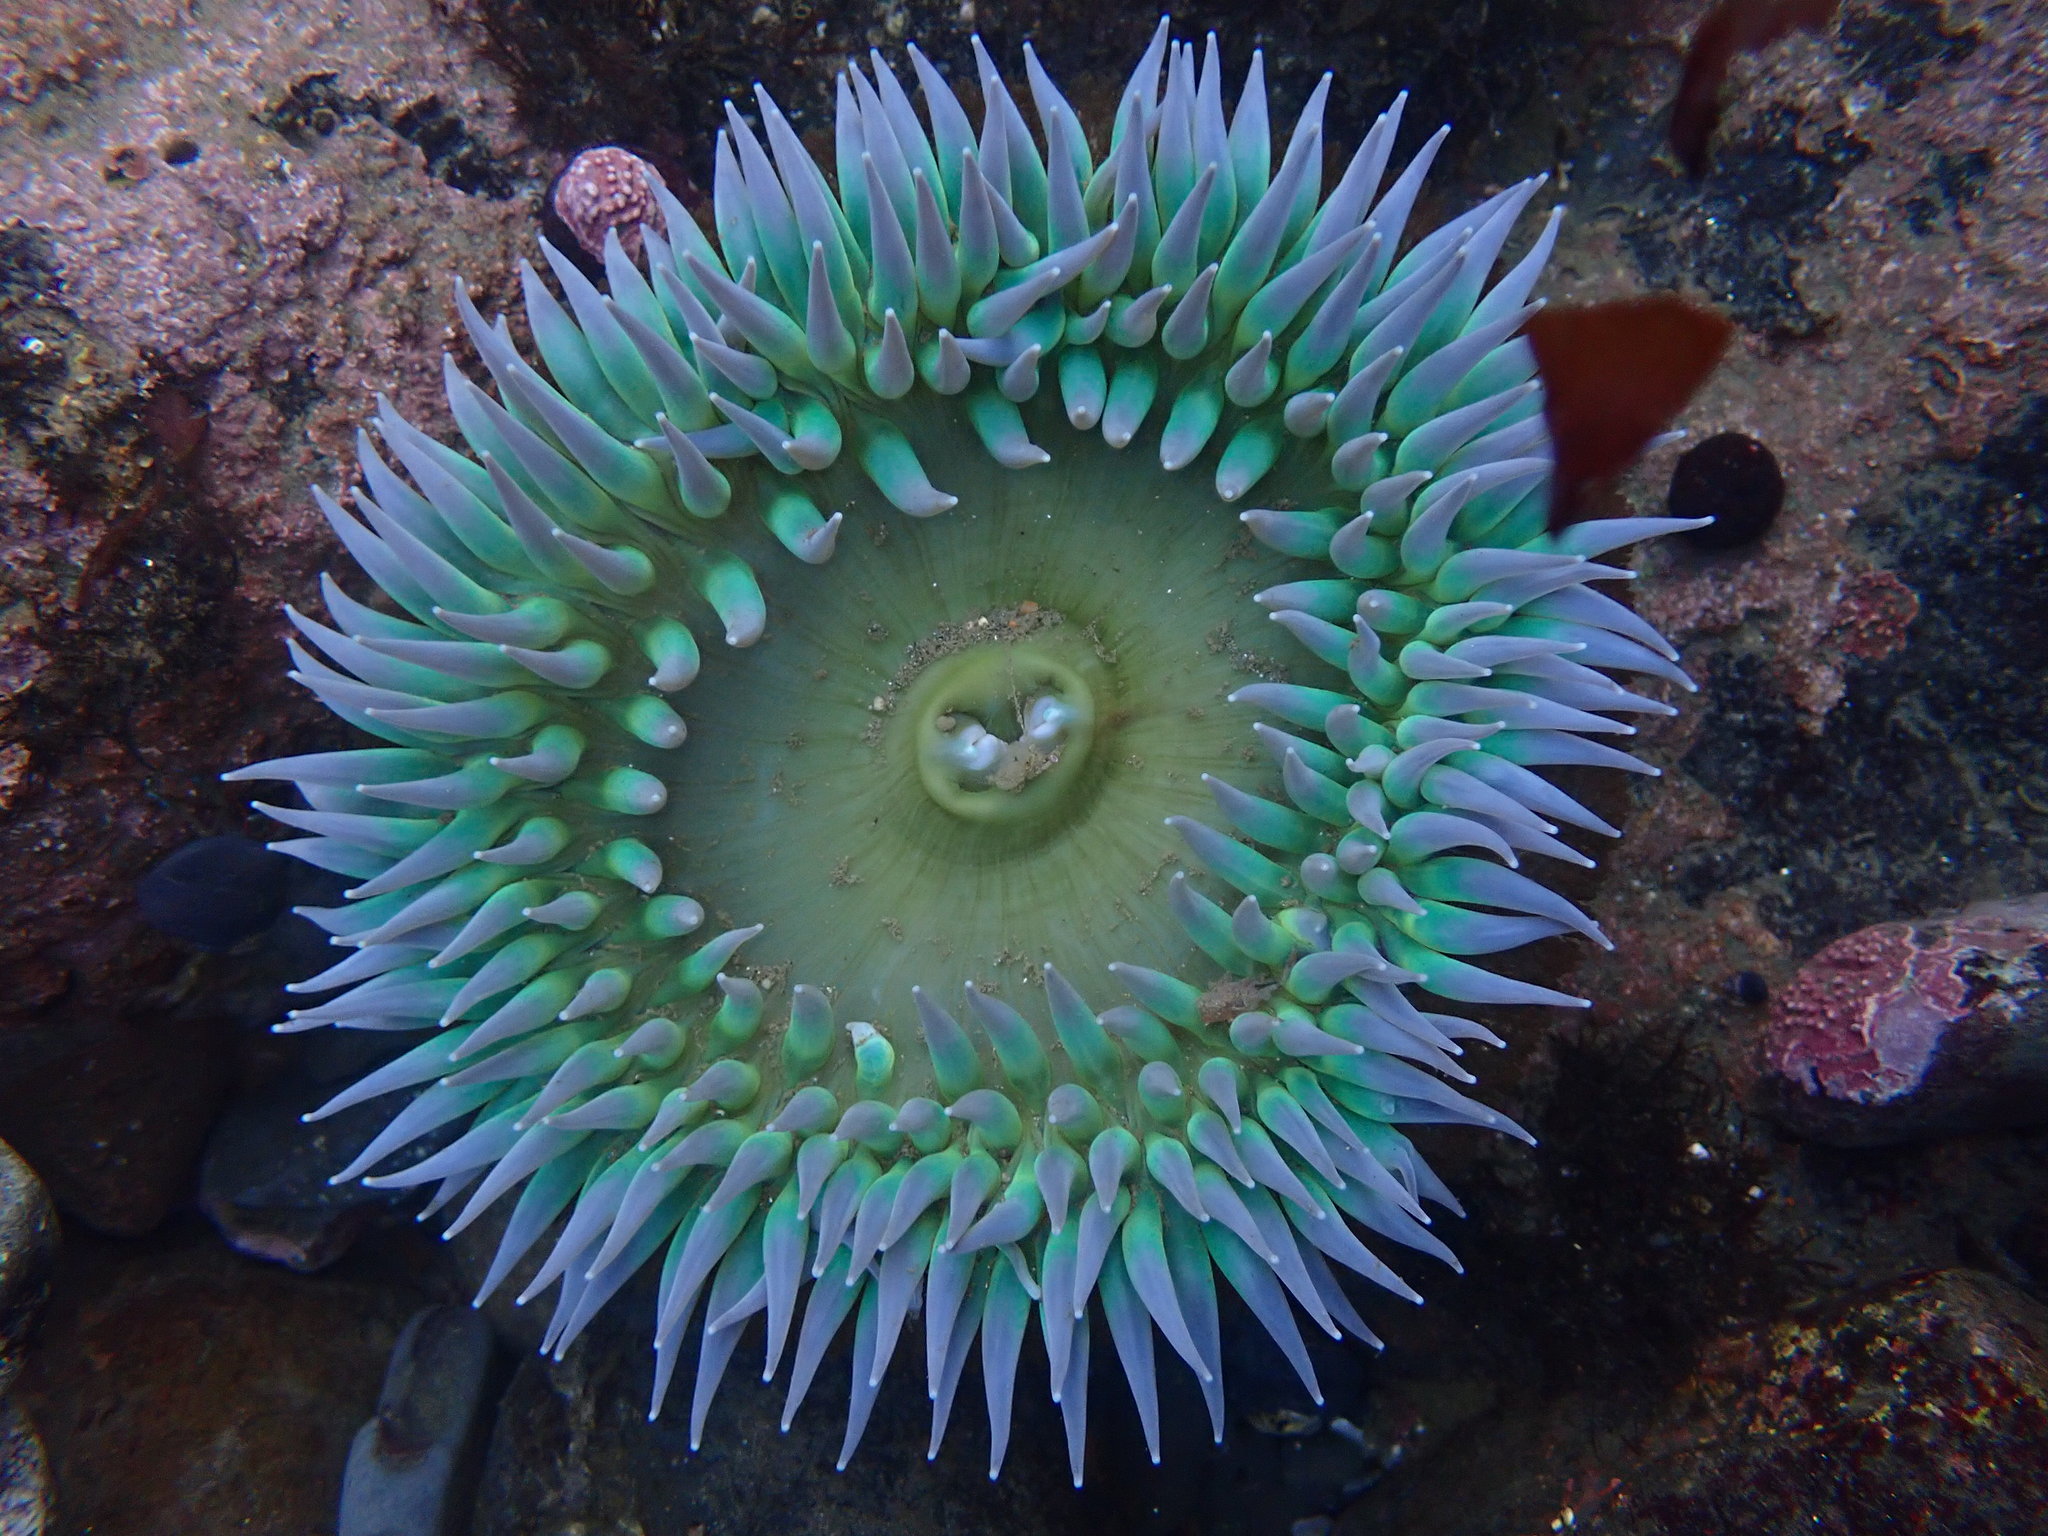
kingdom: Animalia
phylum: Cnidaria
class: Anthozoa
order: Actiniaria
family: Actiniidae
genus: Anthopleura
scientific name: Anthopleura xanthogrammica
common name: Giant green anemone
